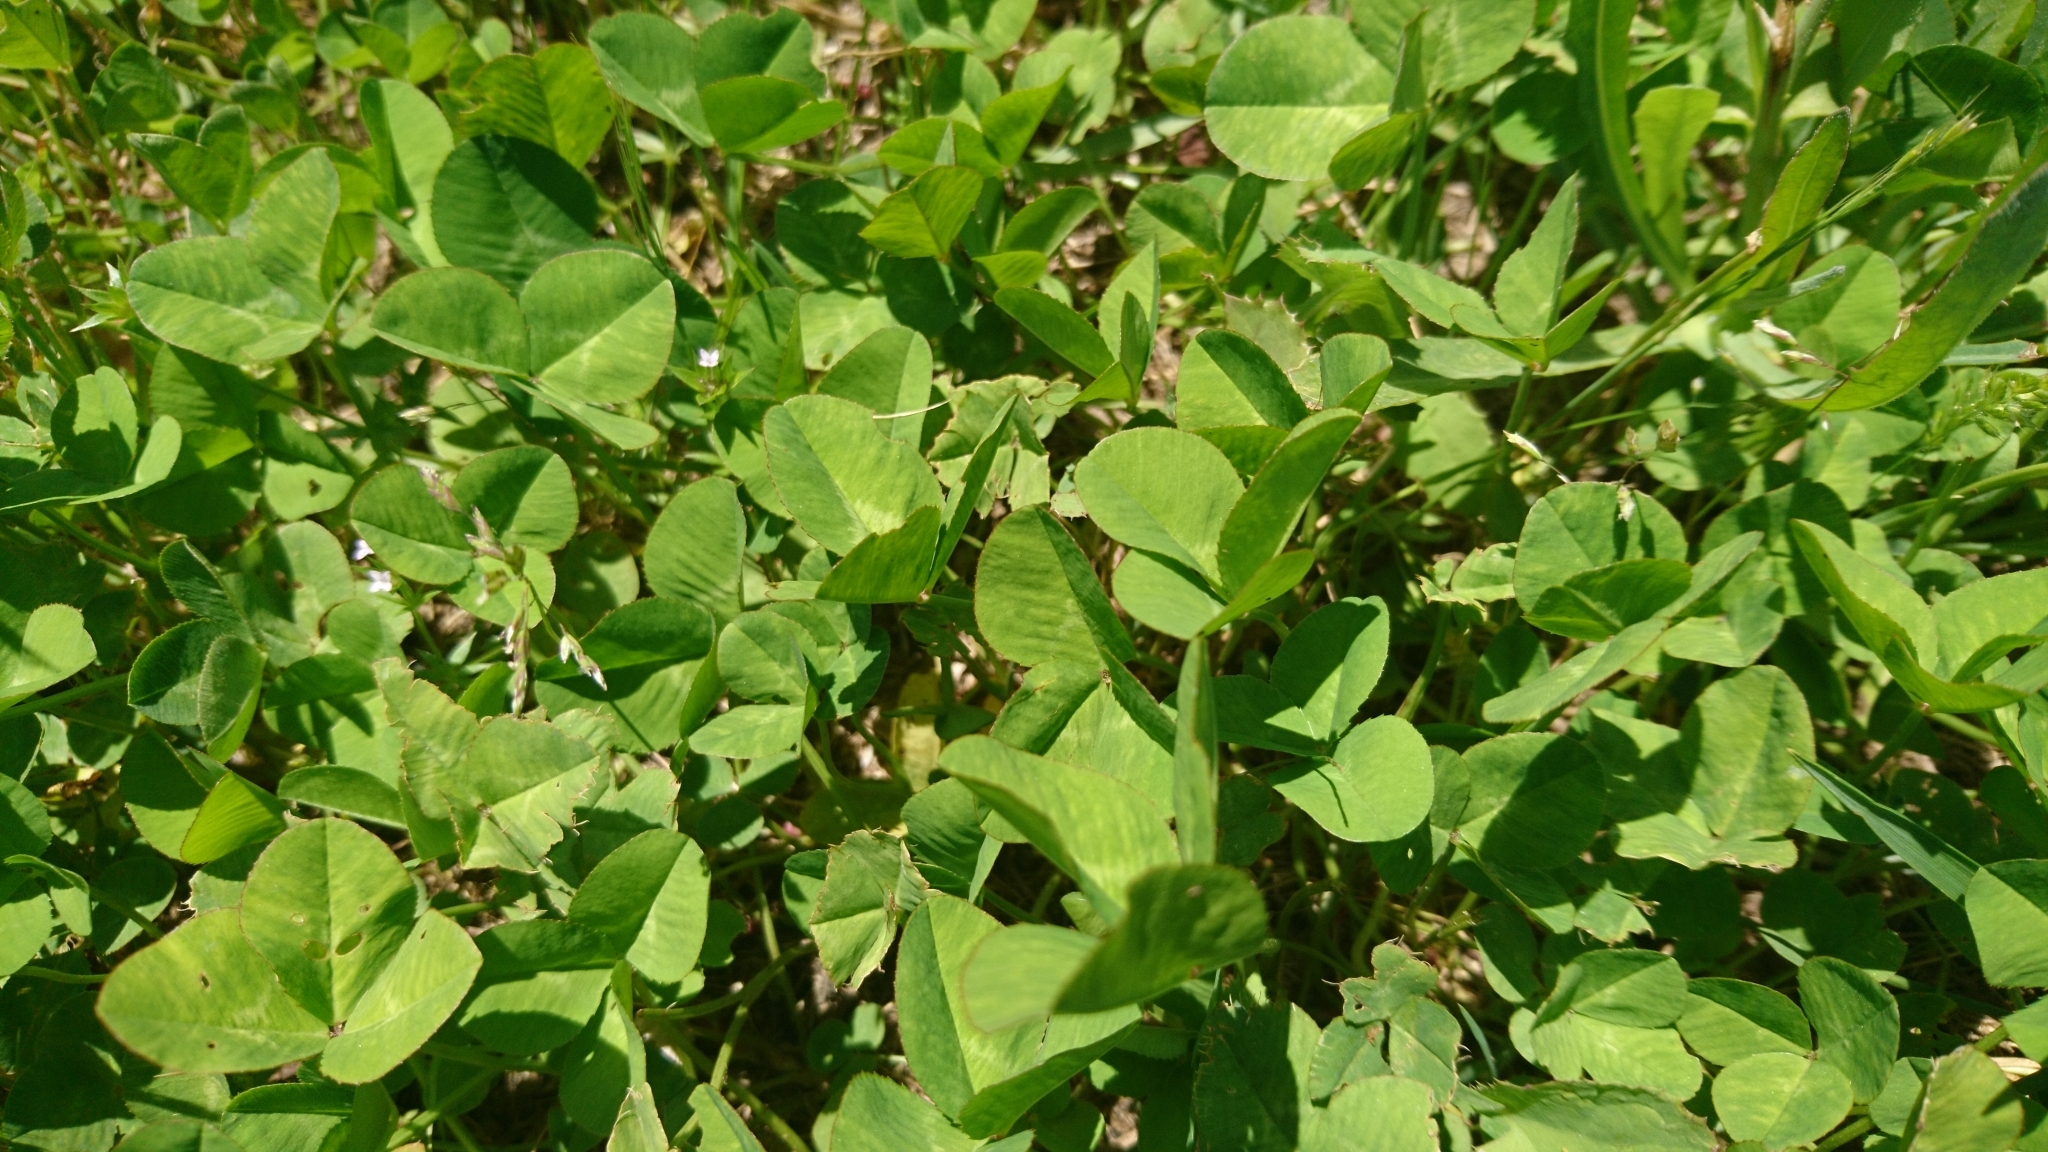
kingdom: Plantae
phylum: Tracheophyta
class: Magnoliopsida
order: Fabales
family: Fabaceae
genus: Trifolium
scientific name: Trifolium repens
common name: White clover
